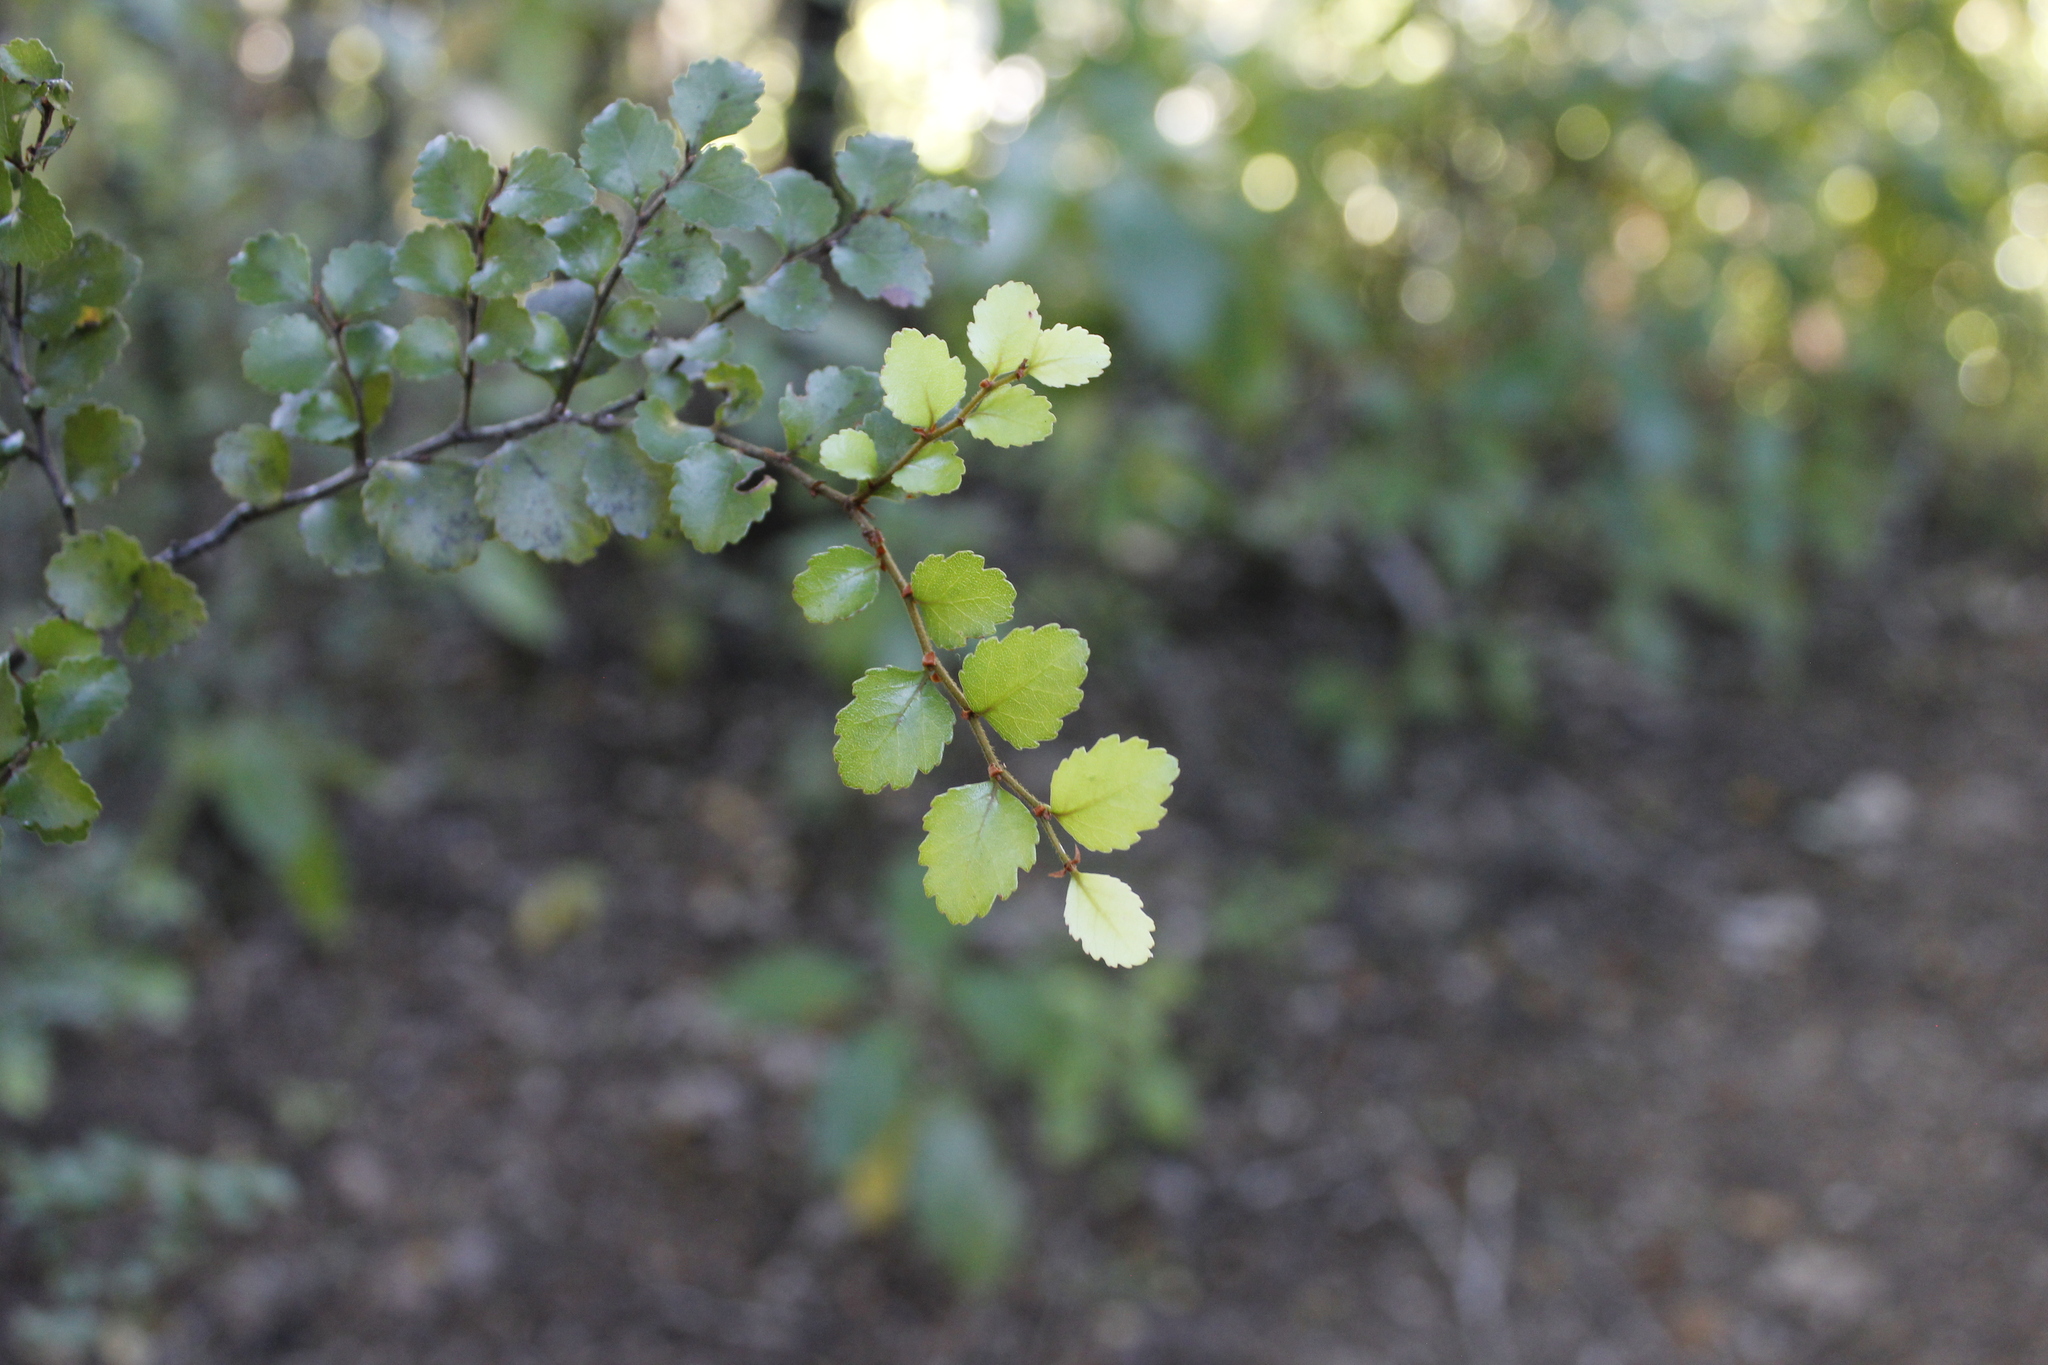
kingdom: Plantae
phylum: Tracheophyta
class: Magnoliopsida
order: Fagales
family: Nothofagaceae
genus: Nothofagus
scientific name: Nothofagus menziesii
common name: Silver beech
